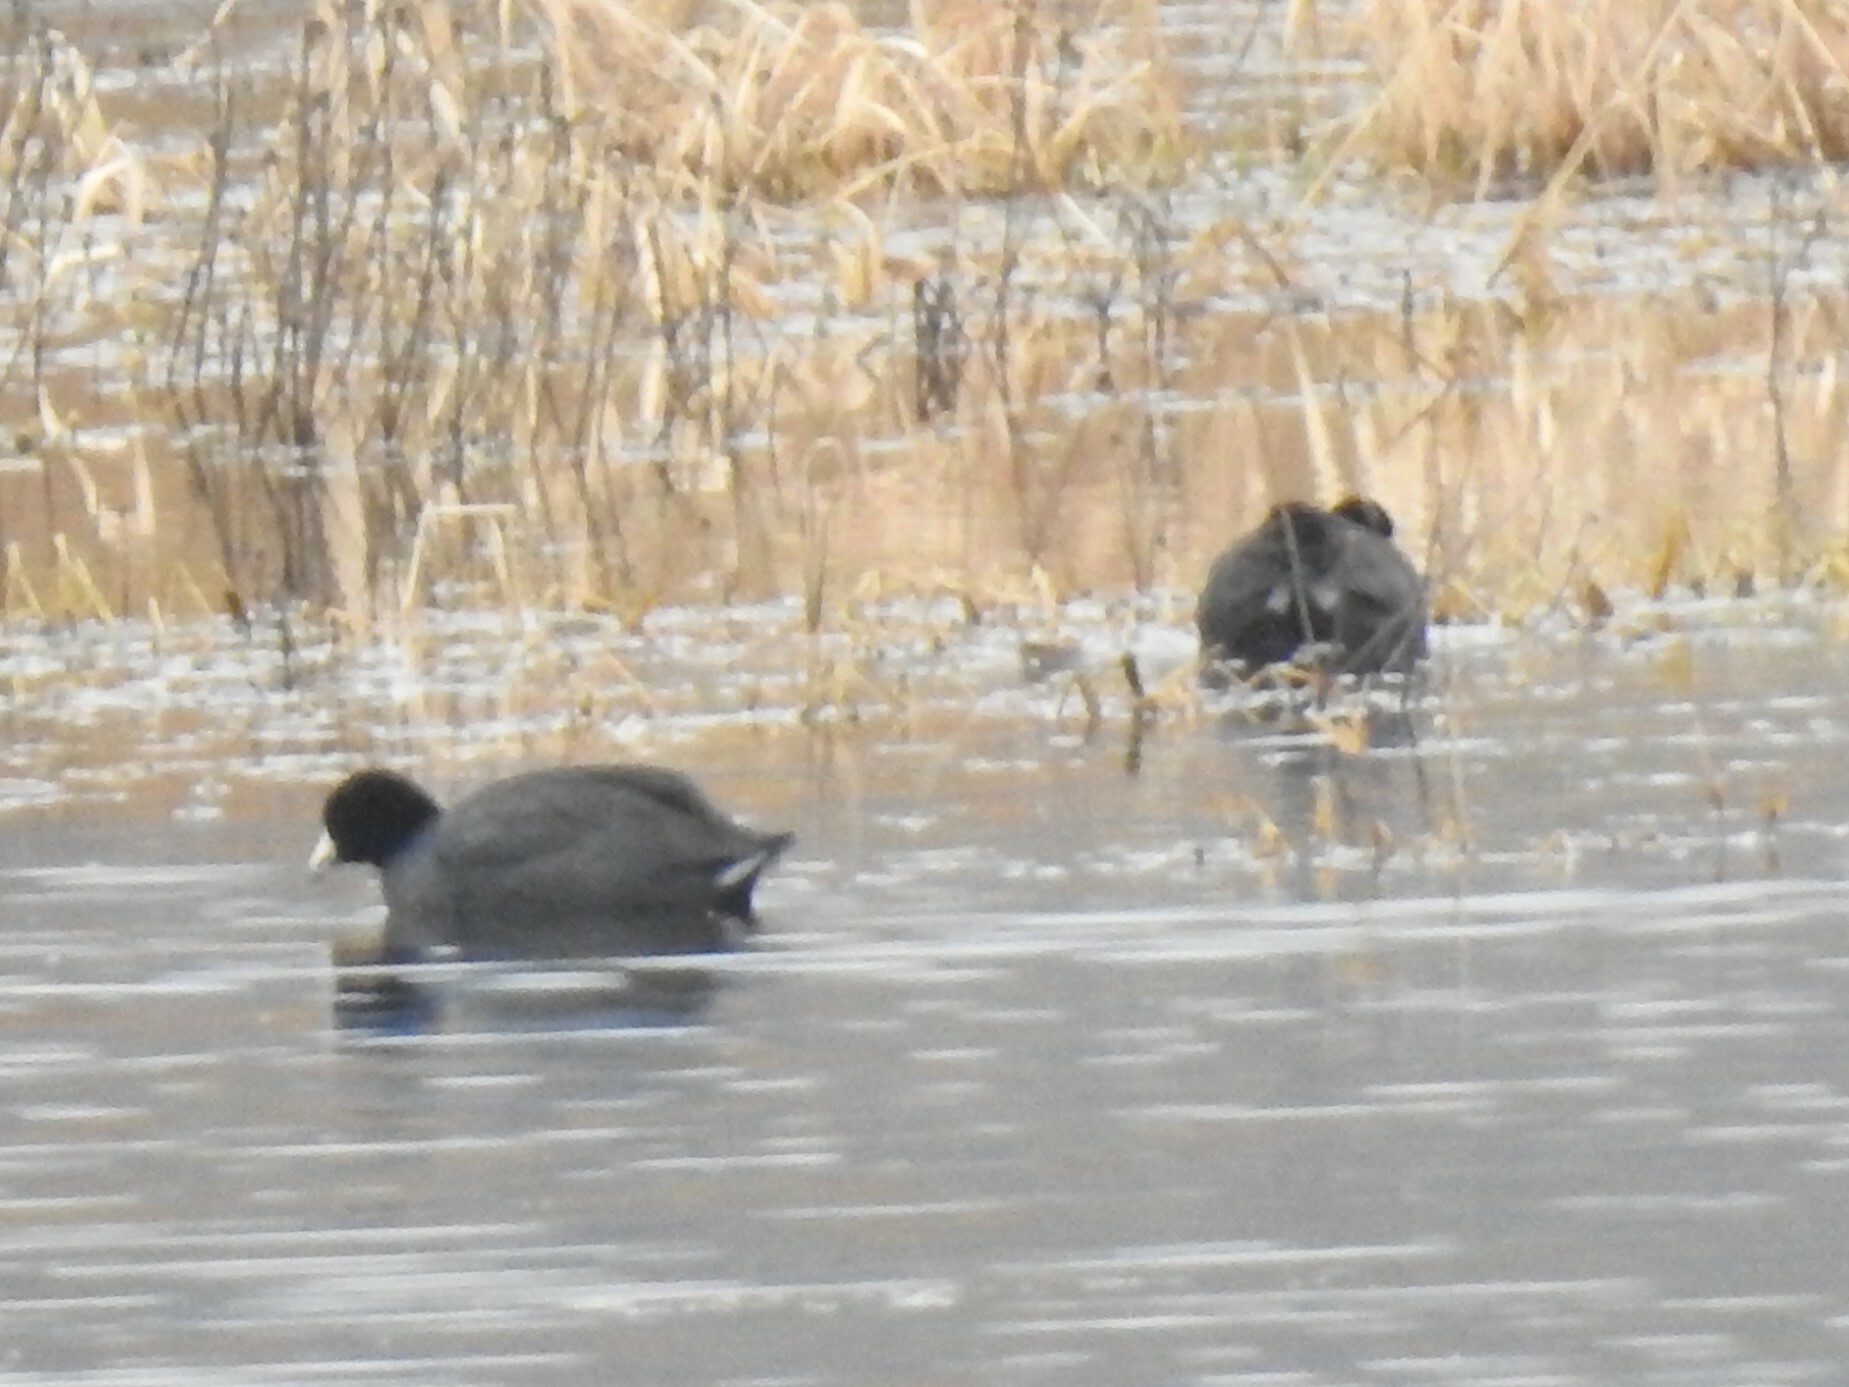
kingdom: Animalia
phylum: Chordata
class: Aves
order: Gruiformes
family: Rallidae
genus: Fulica
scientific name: Fulica americana
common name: American coot
